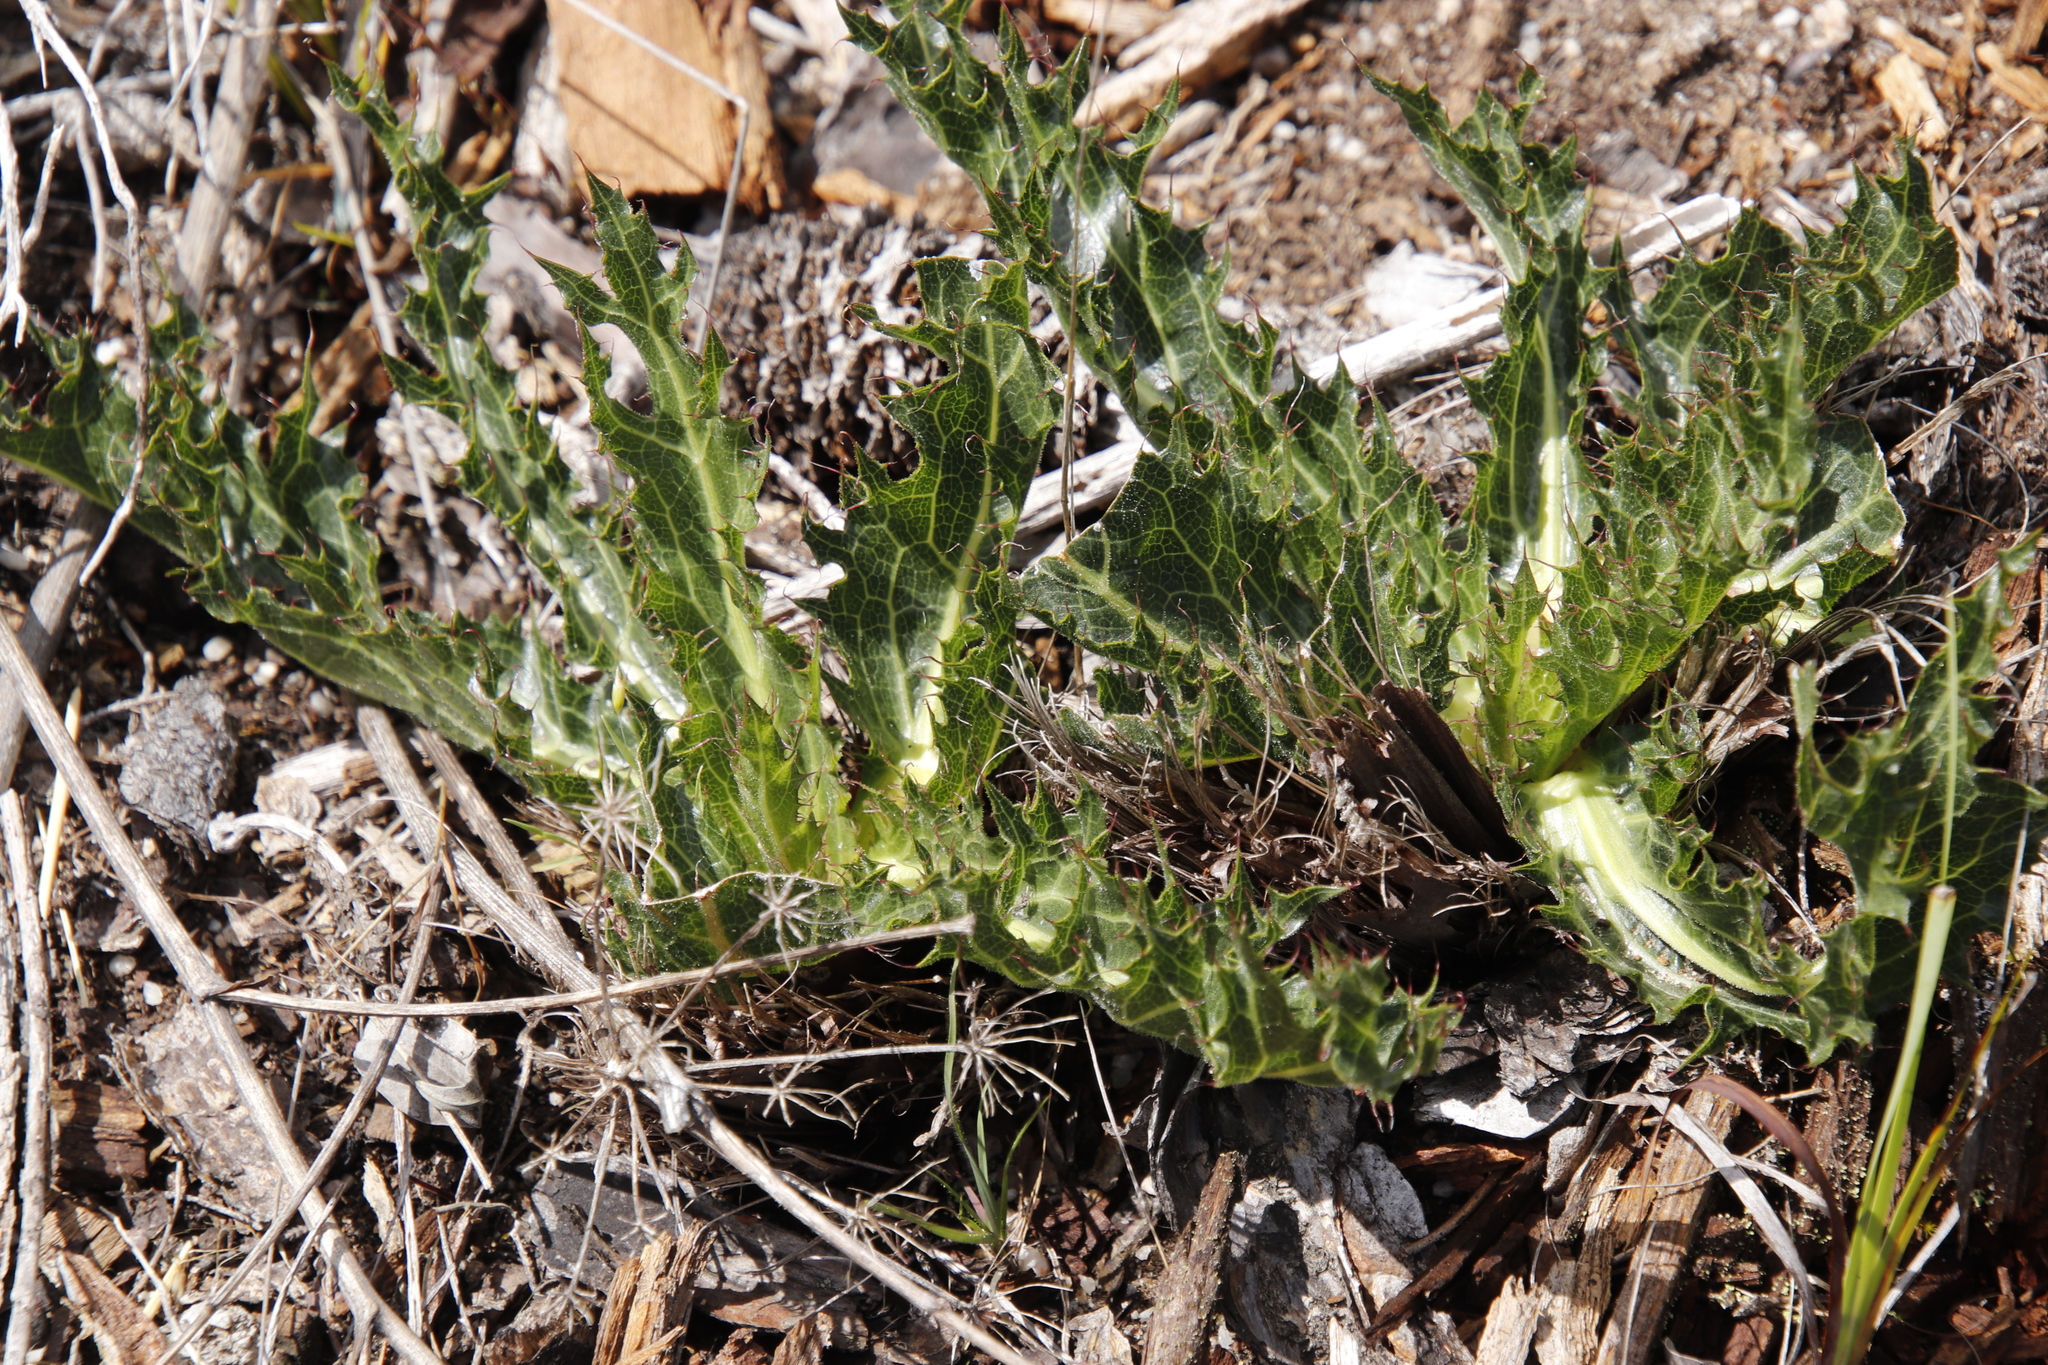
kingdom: Plantae
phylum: Tracheophyta
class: Magnoliopsida
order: Apiales
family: Apiaceae
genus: Lichtensteinia
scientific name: Lichtensteinia lacera
